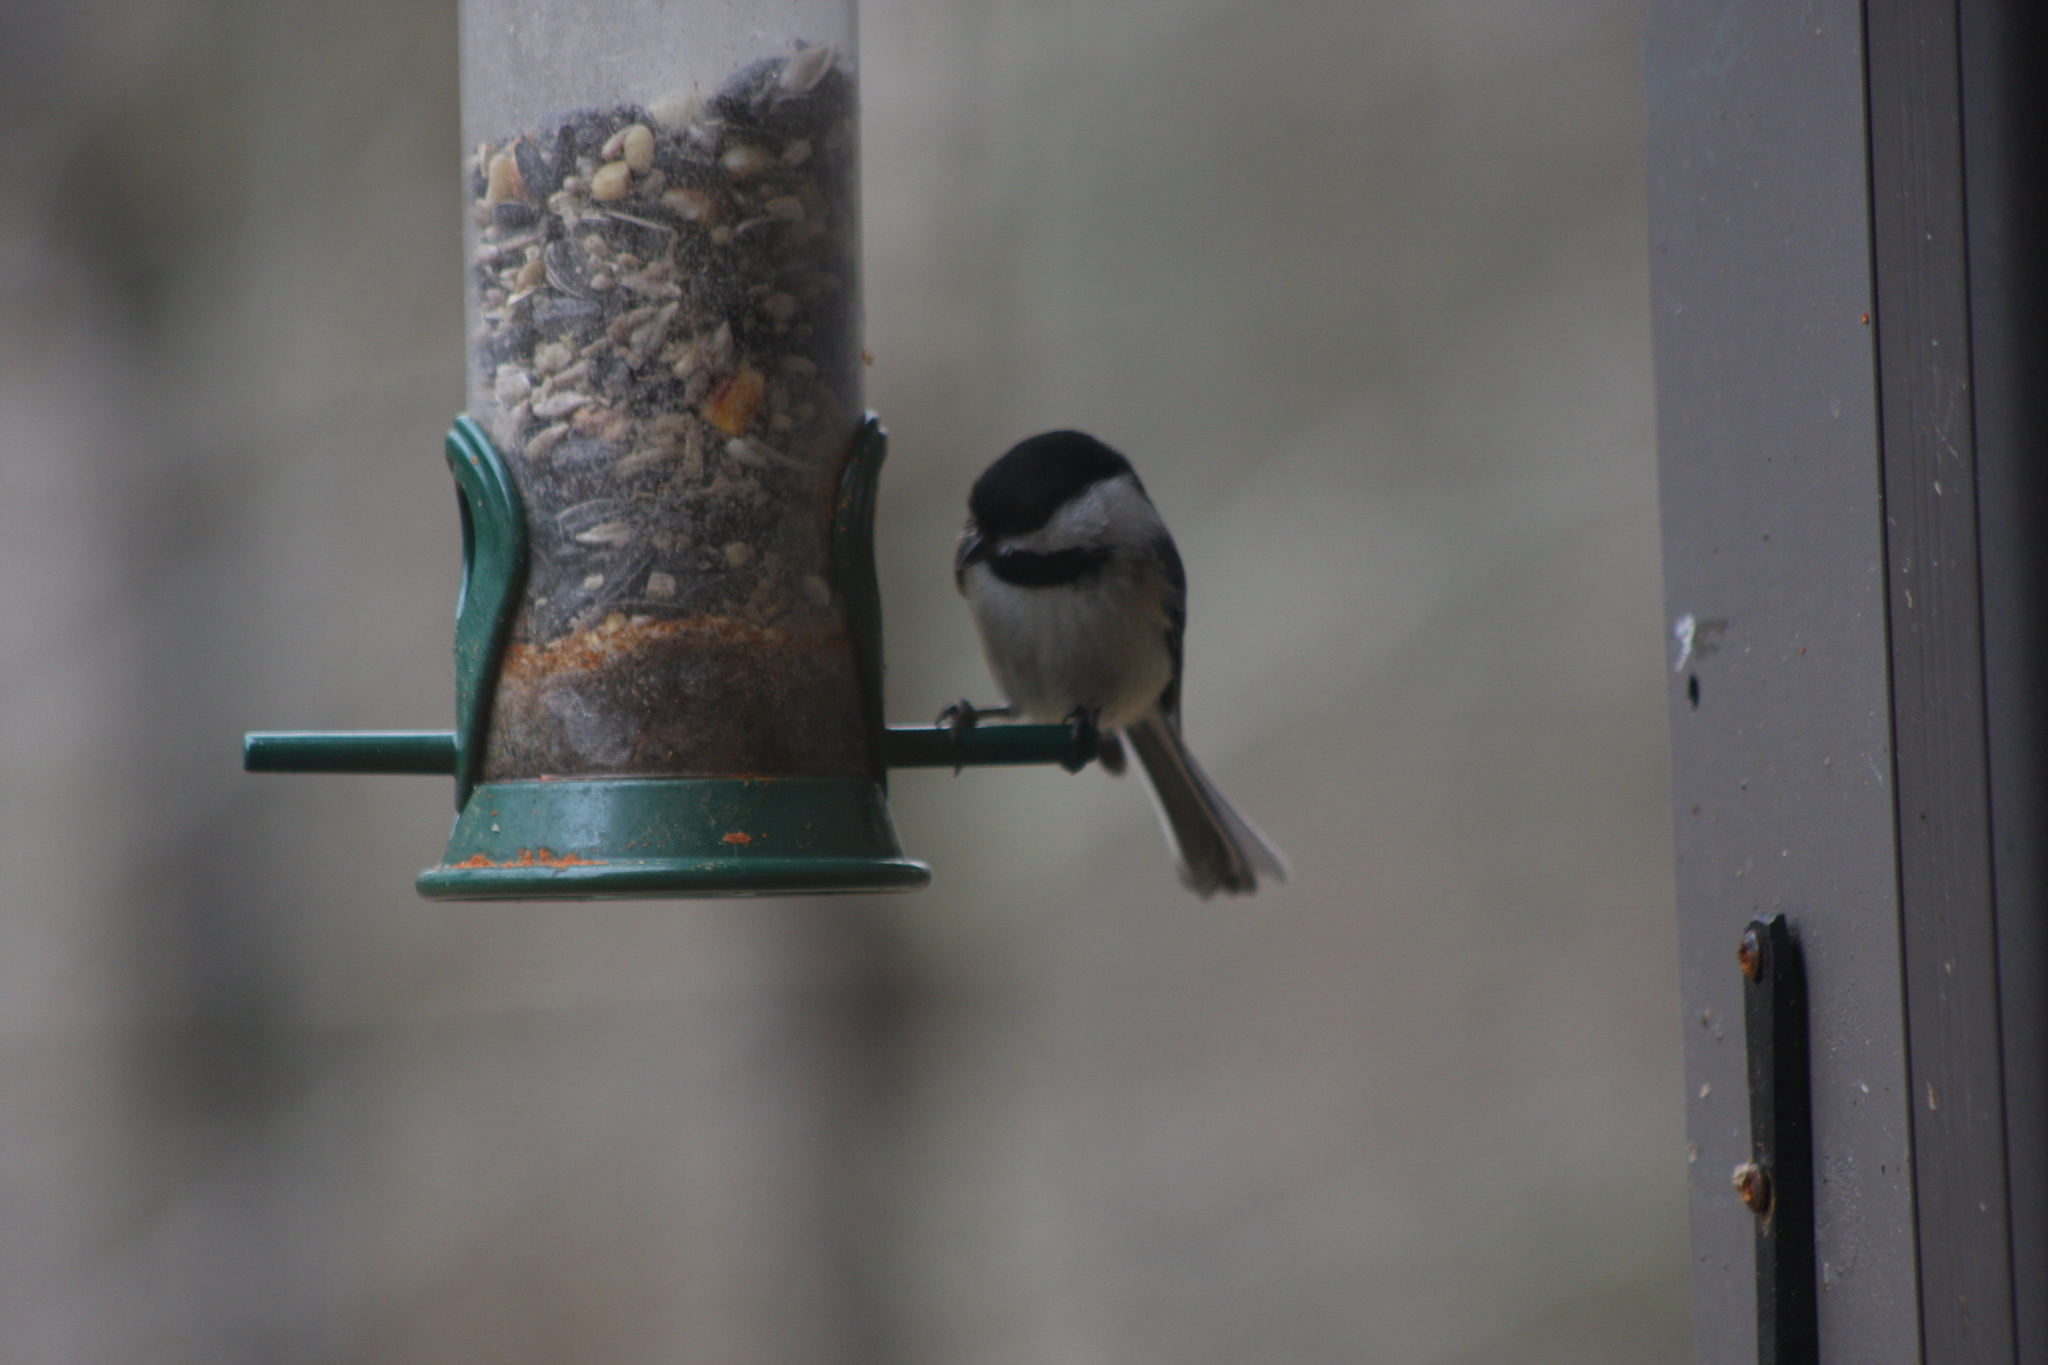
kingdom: Animalia
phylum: Chordata
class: Aves
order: Passeriformes
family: Paridae
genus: Poecile
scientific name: Poecile atricapillus
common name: Black-capped chickadee
